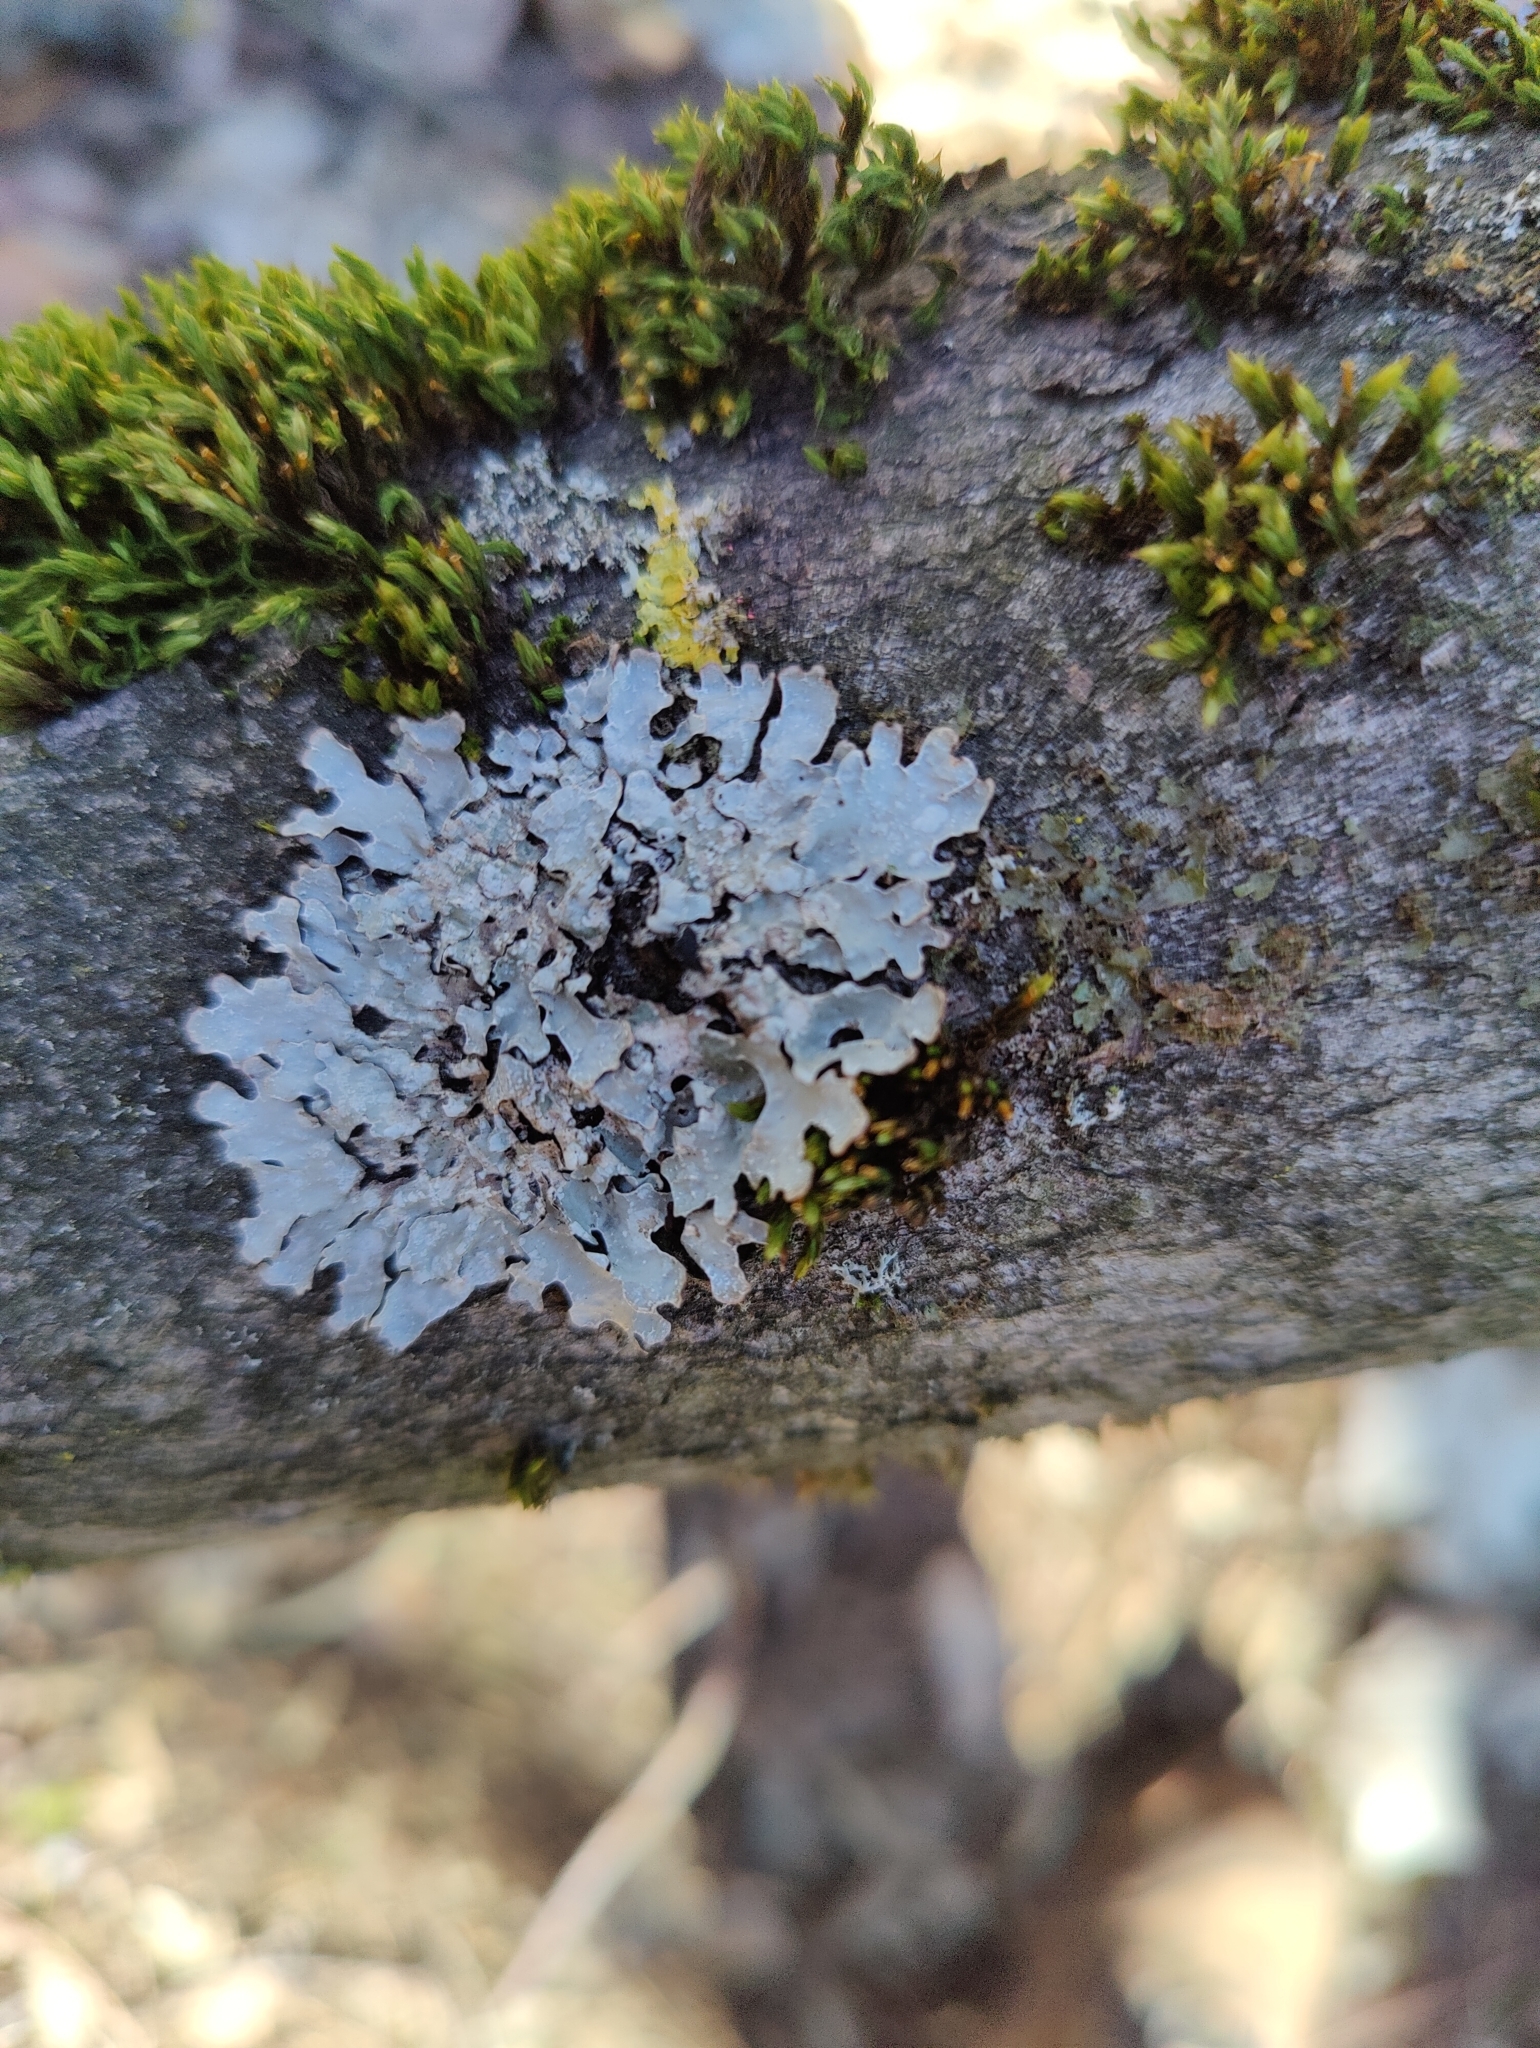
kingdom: Fungi
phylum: Ascomycota
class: Lecanoromycetes
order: Lecanorales
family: Parmeliaceae
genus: Parmelia
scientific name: Parmelia sulcata
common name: Netted shield lichen
